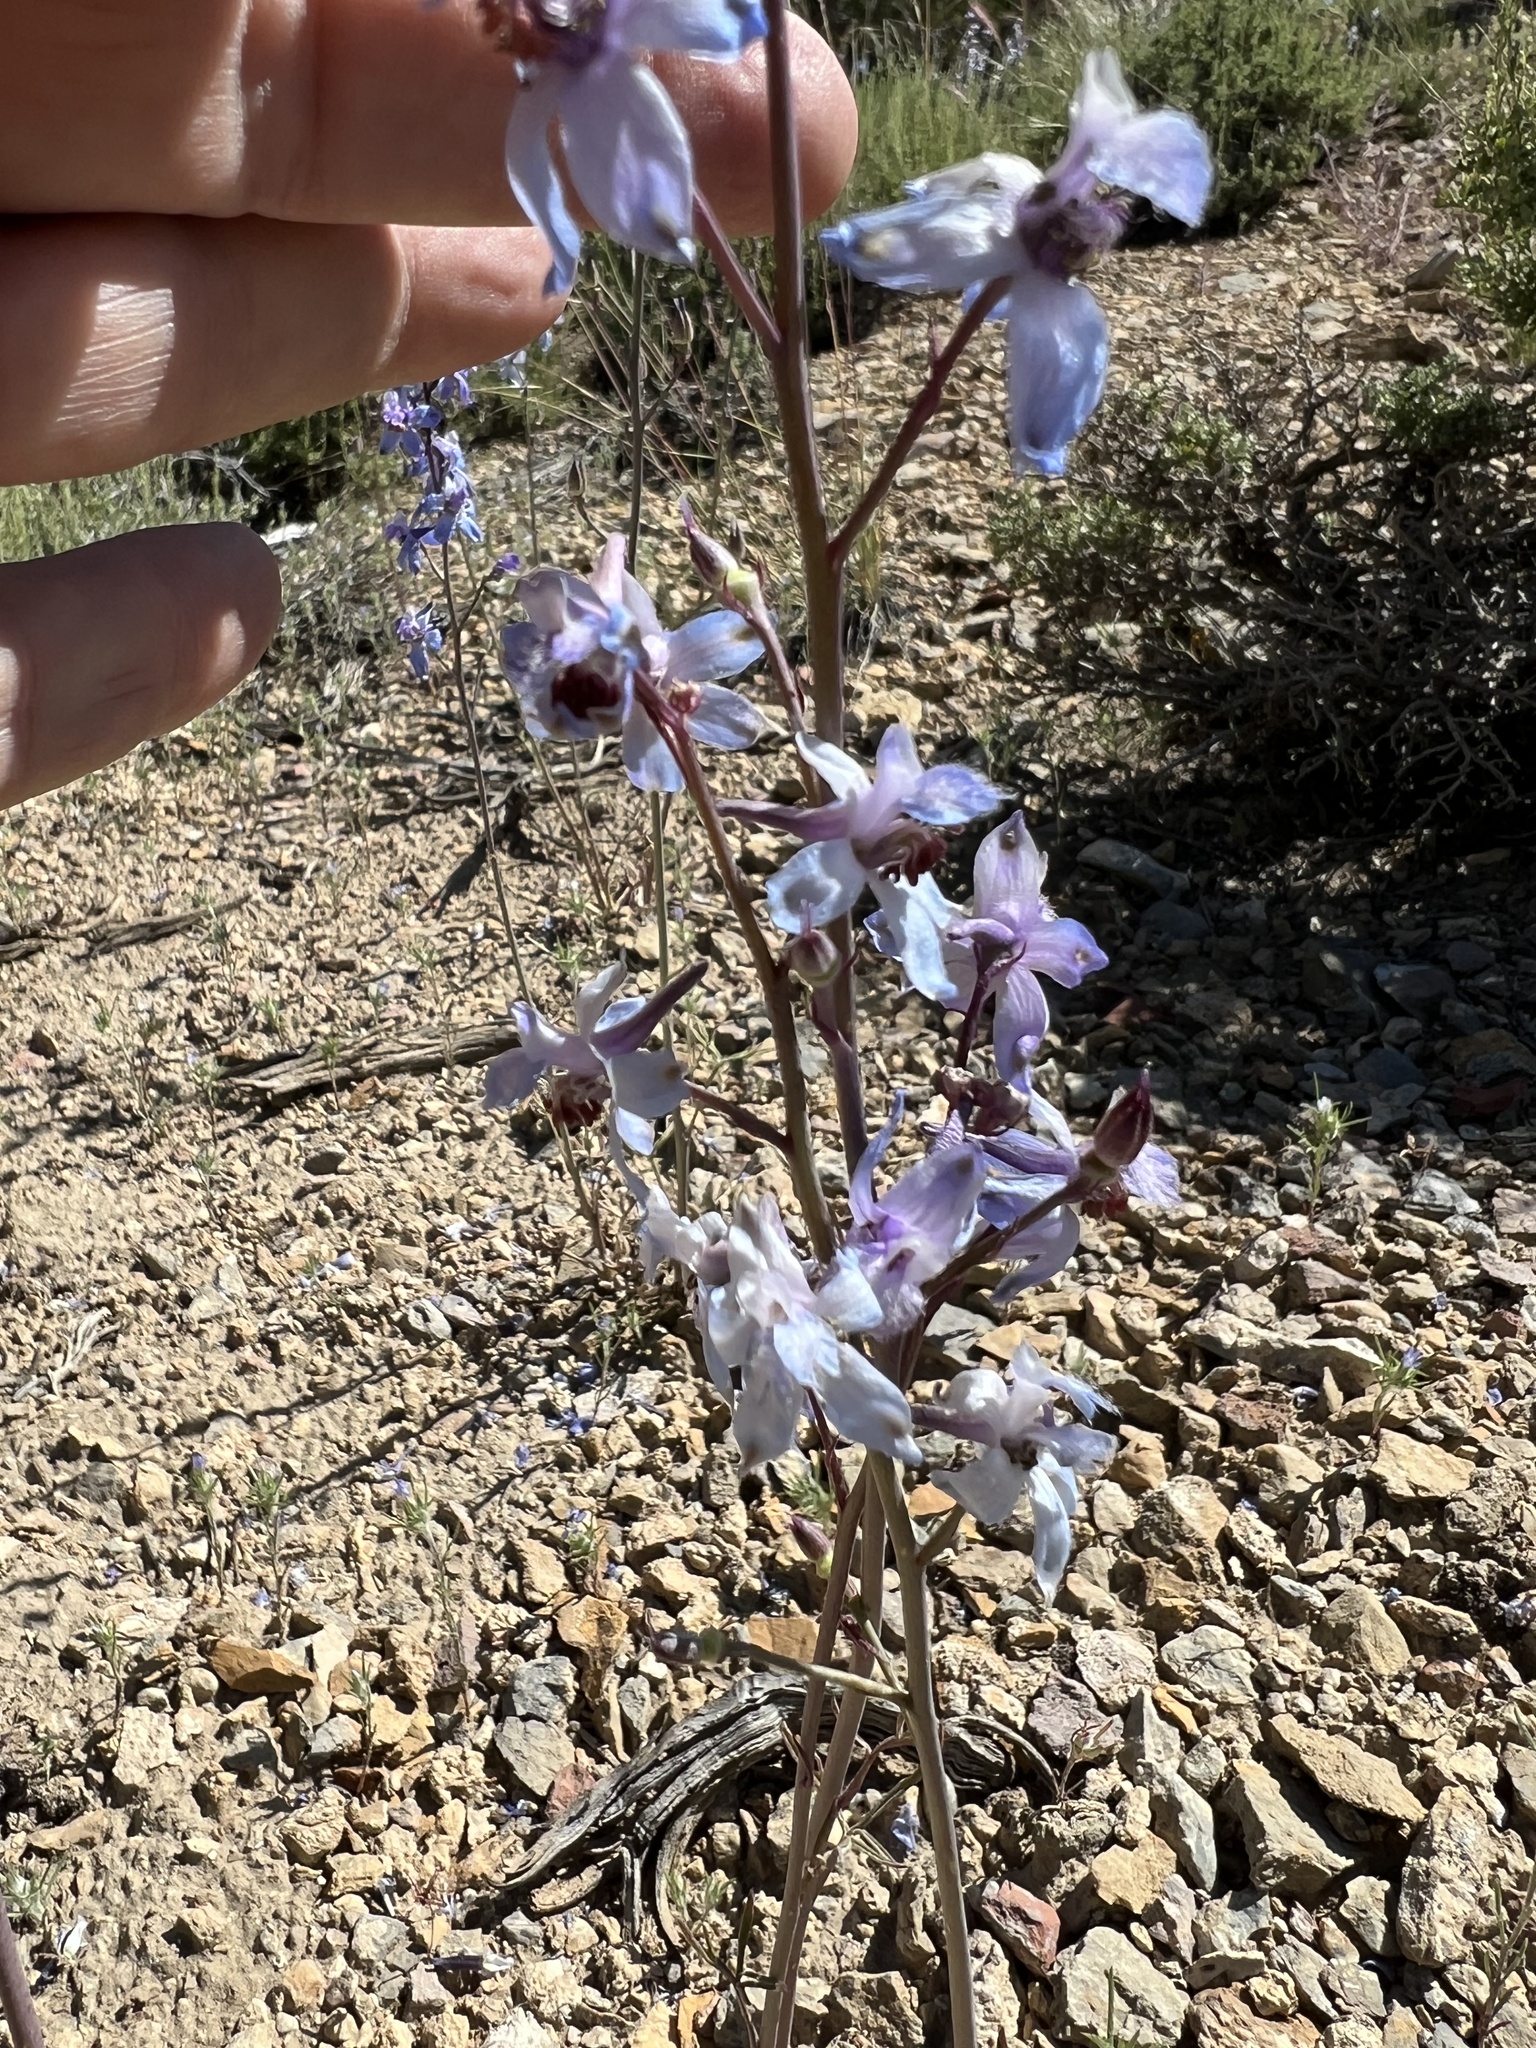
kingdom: Plantae
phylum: Tracheophyta
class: Magnoliopsida
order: Ranunculales
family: Ranunculaceae
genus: Delphinium
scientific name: Delphinium parishii
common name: Apache larkspur
